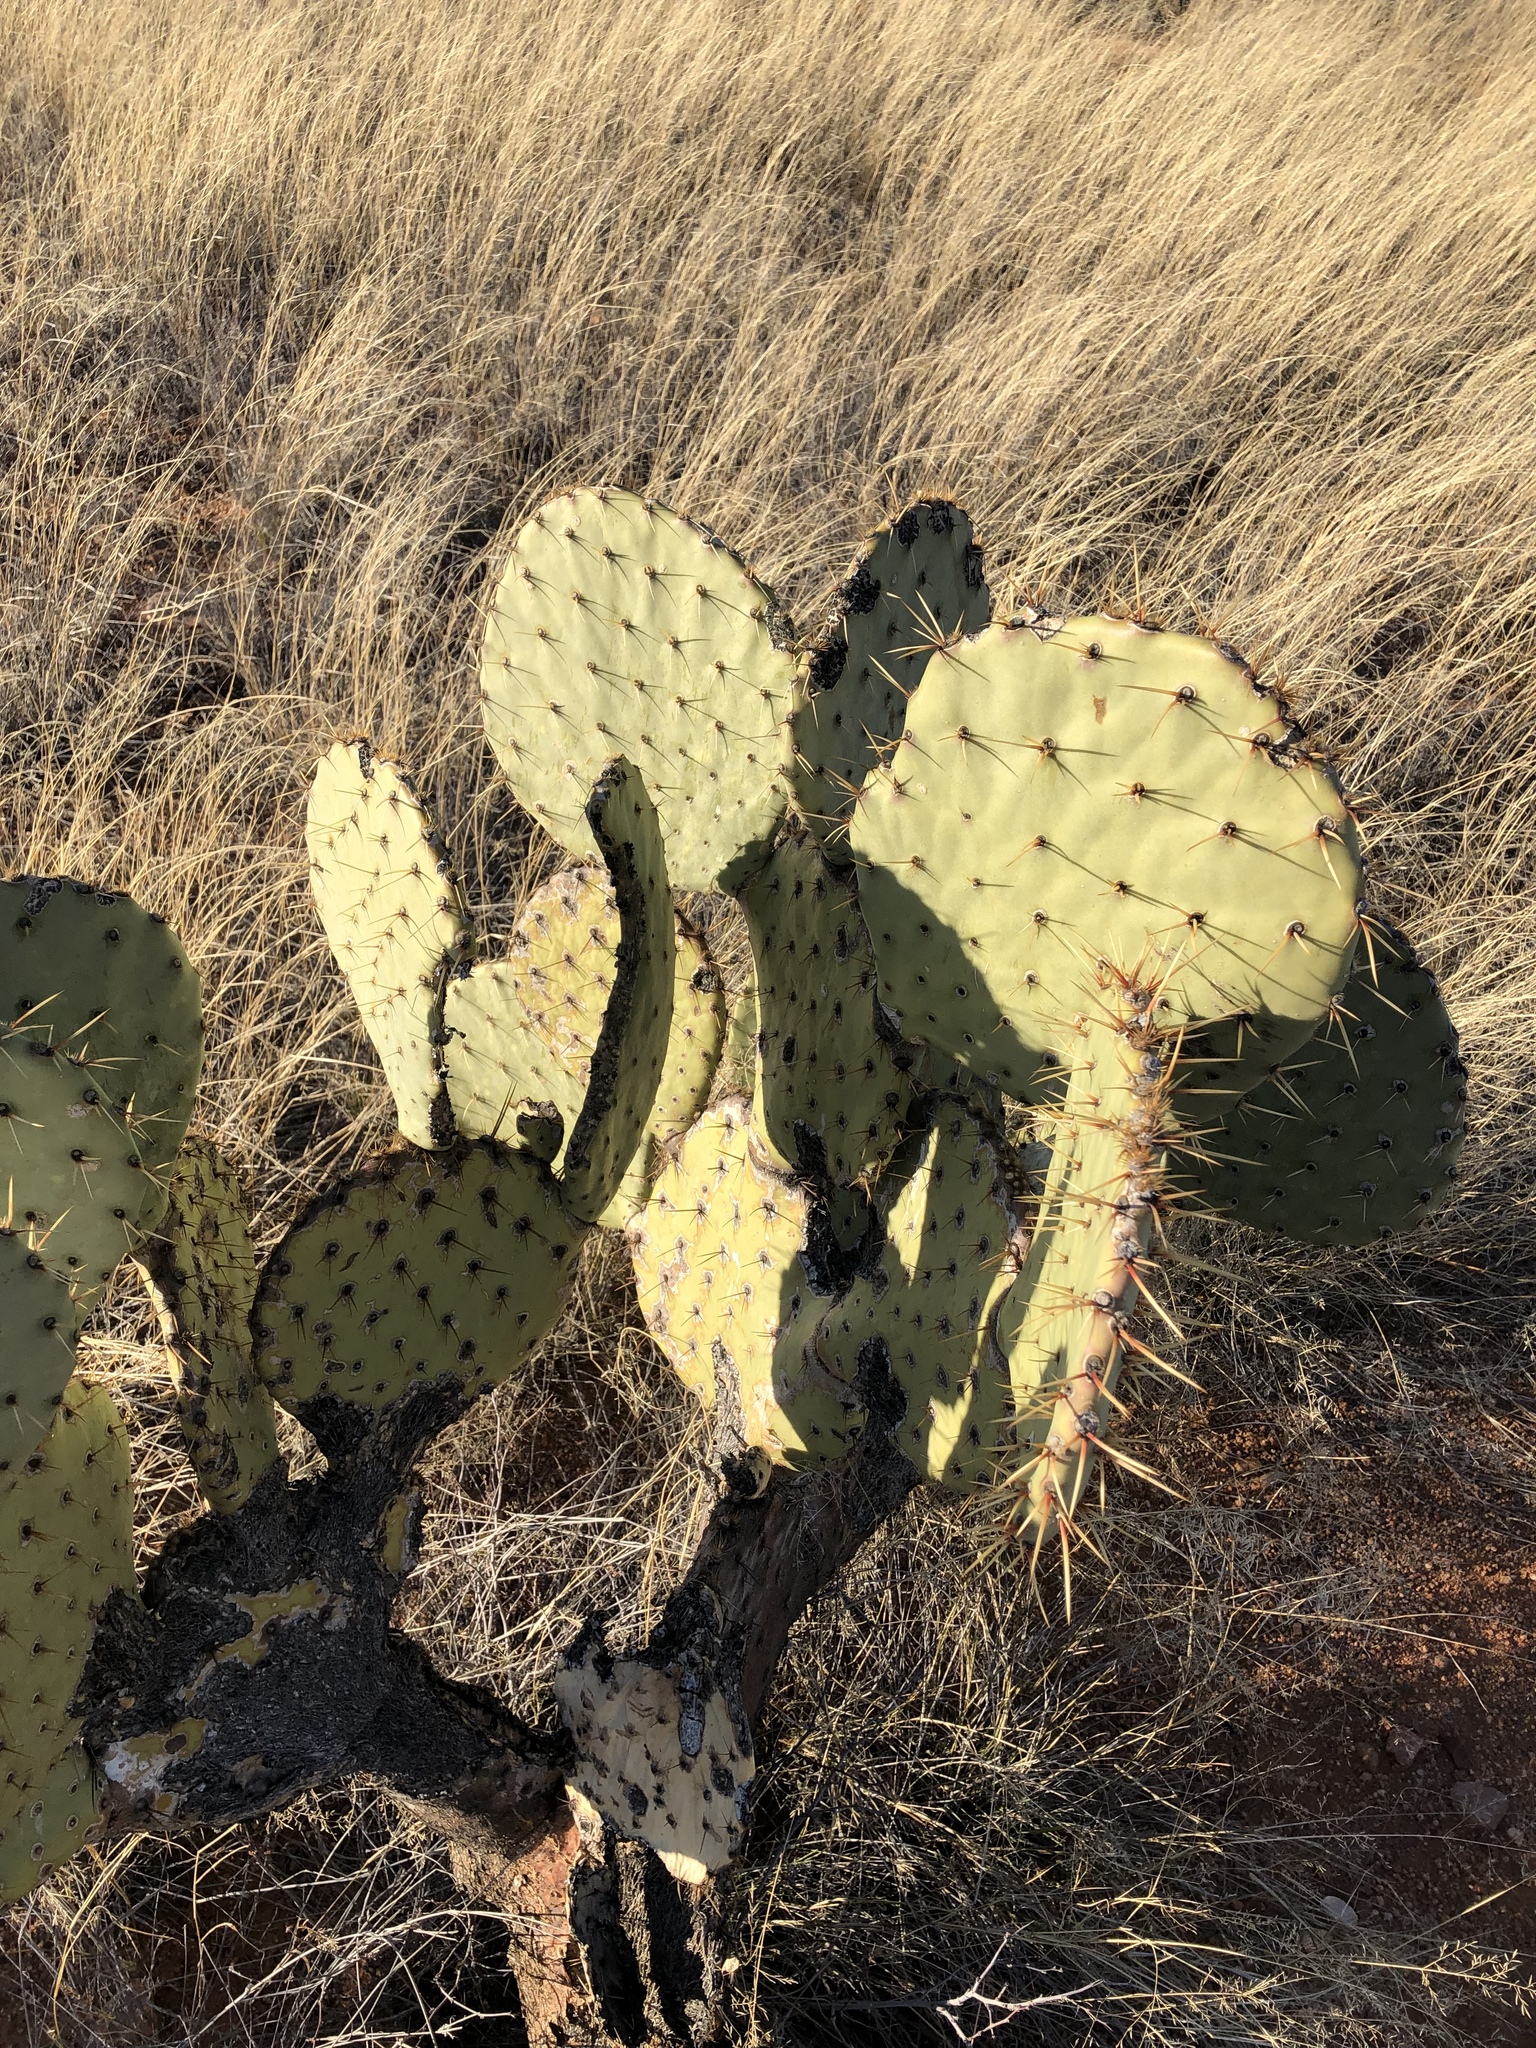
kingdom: Plantae
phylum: Tracheophyta
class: Magnoliopsida
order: Caryophyllales
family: Cactaceae
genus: Opuntia
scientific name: Opuntia orbiculata
